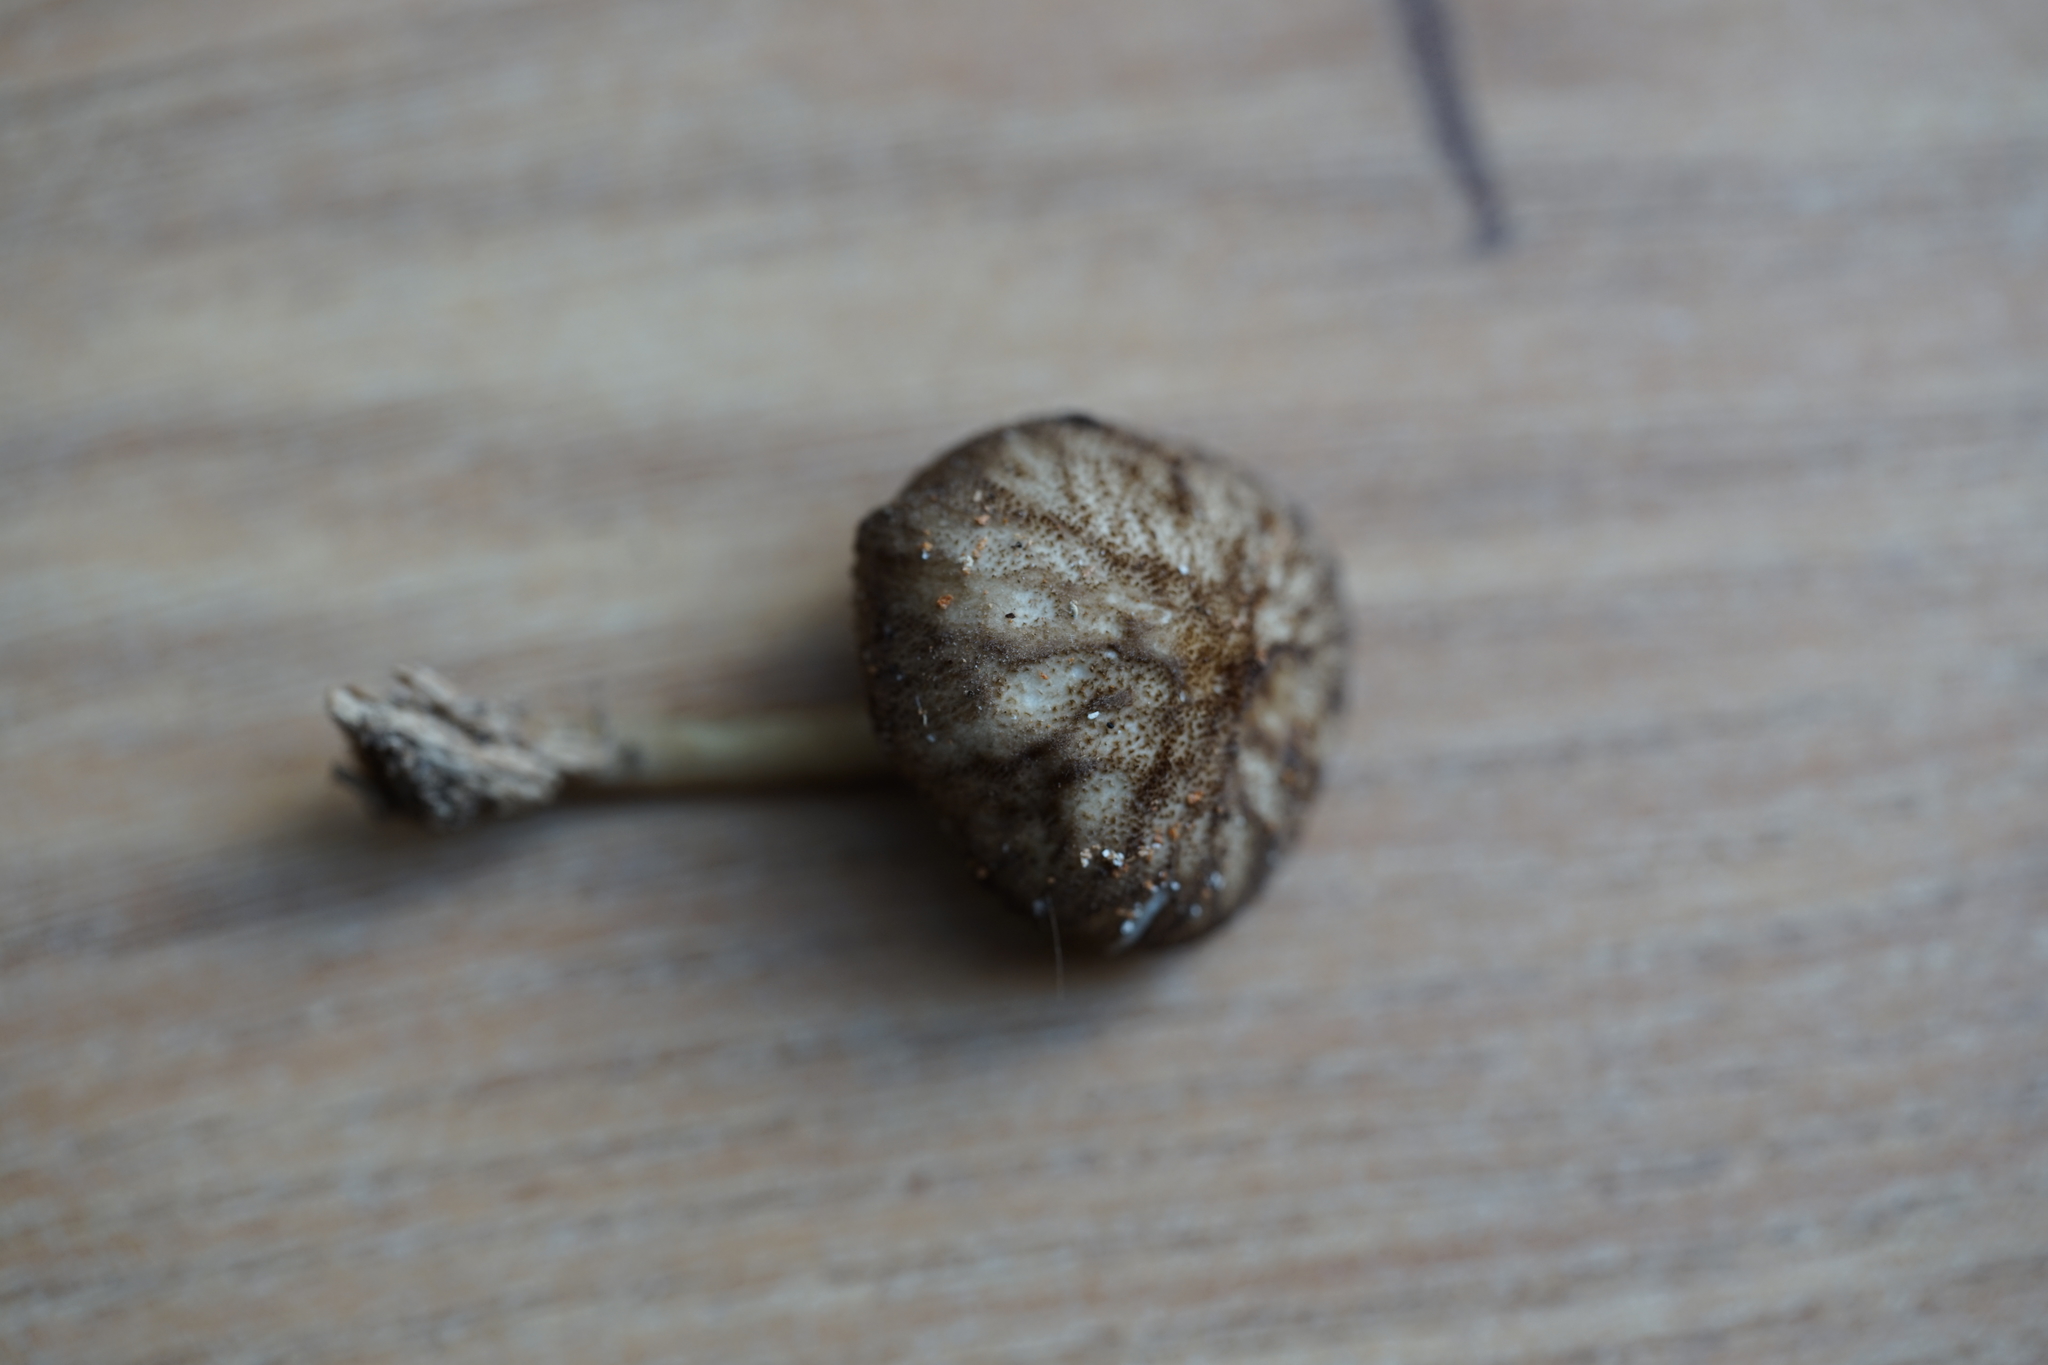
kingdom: Fungi
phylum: Basidiomycota
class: Agaricomycetes
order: Agaricales
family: Pluteaceae
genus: Pluteus
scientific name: Pluteus umbrosus
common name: Velvet shield
